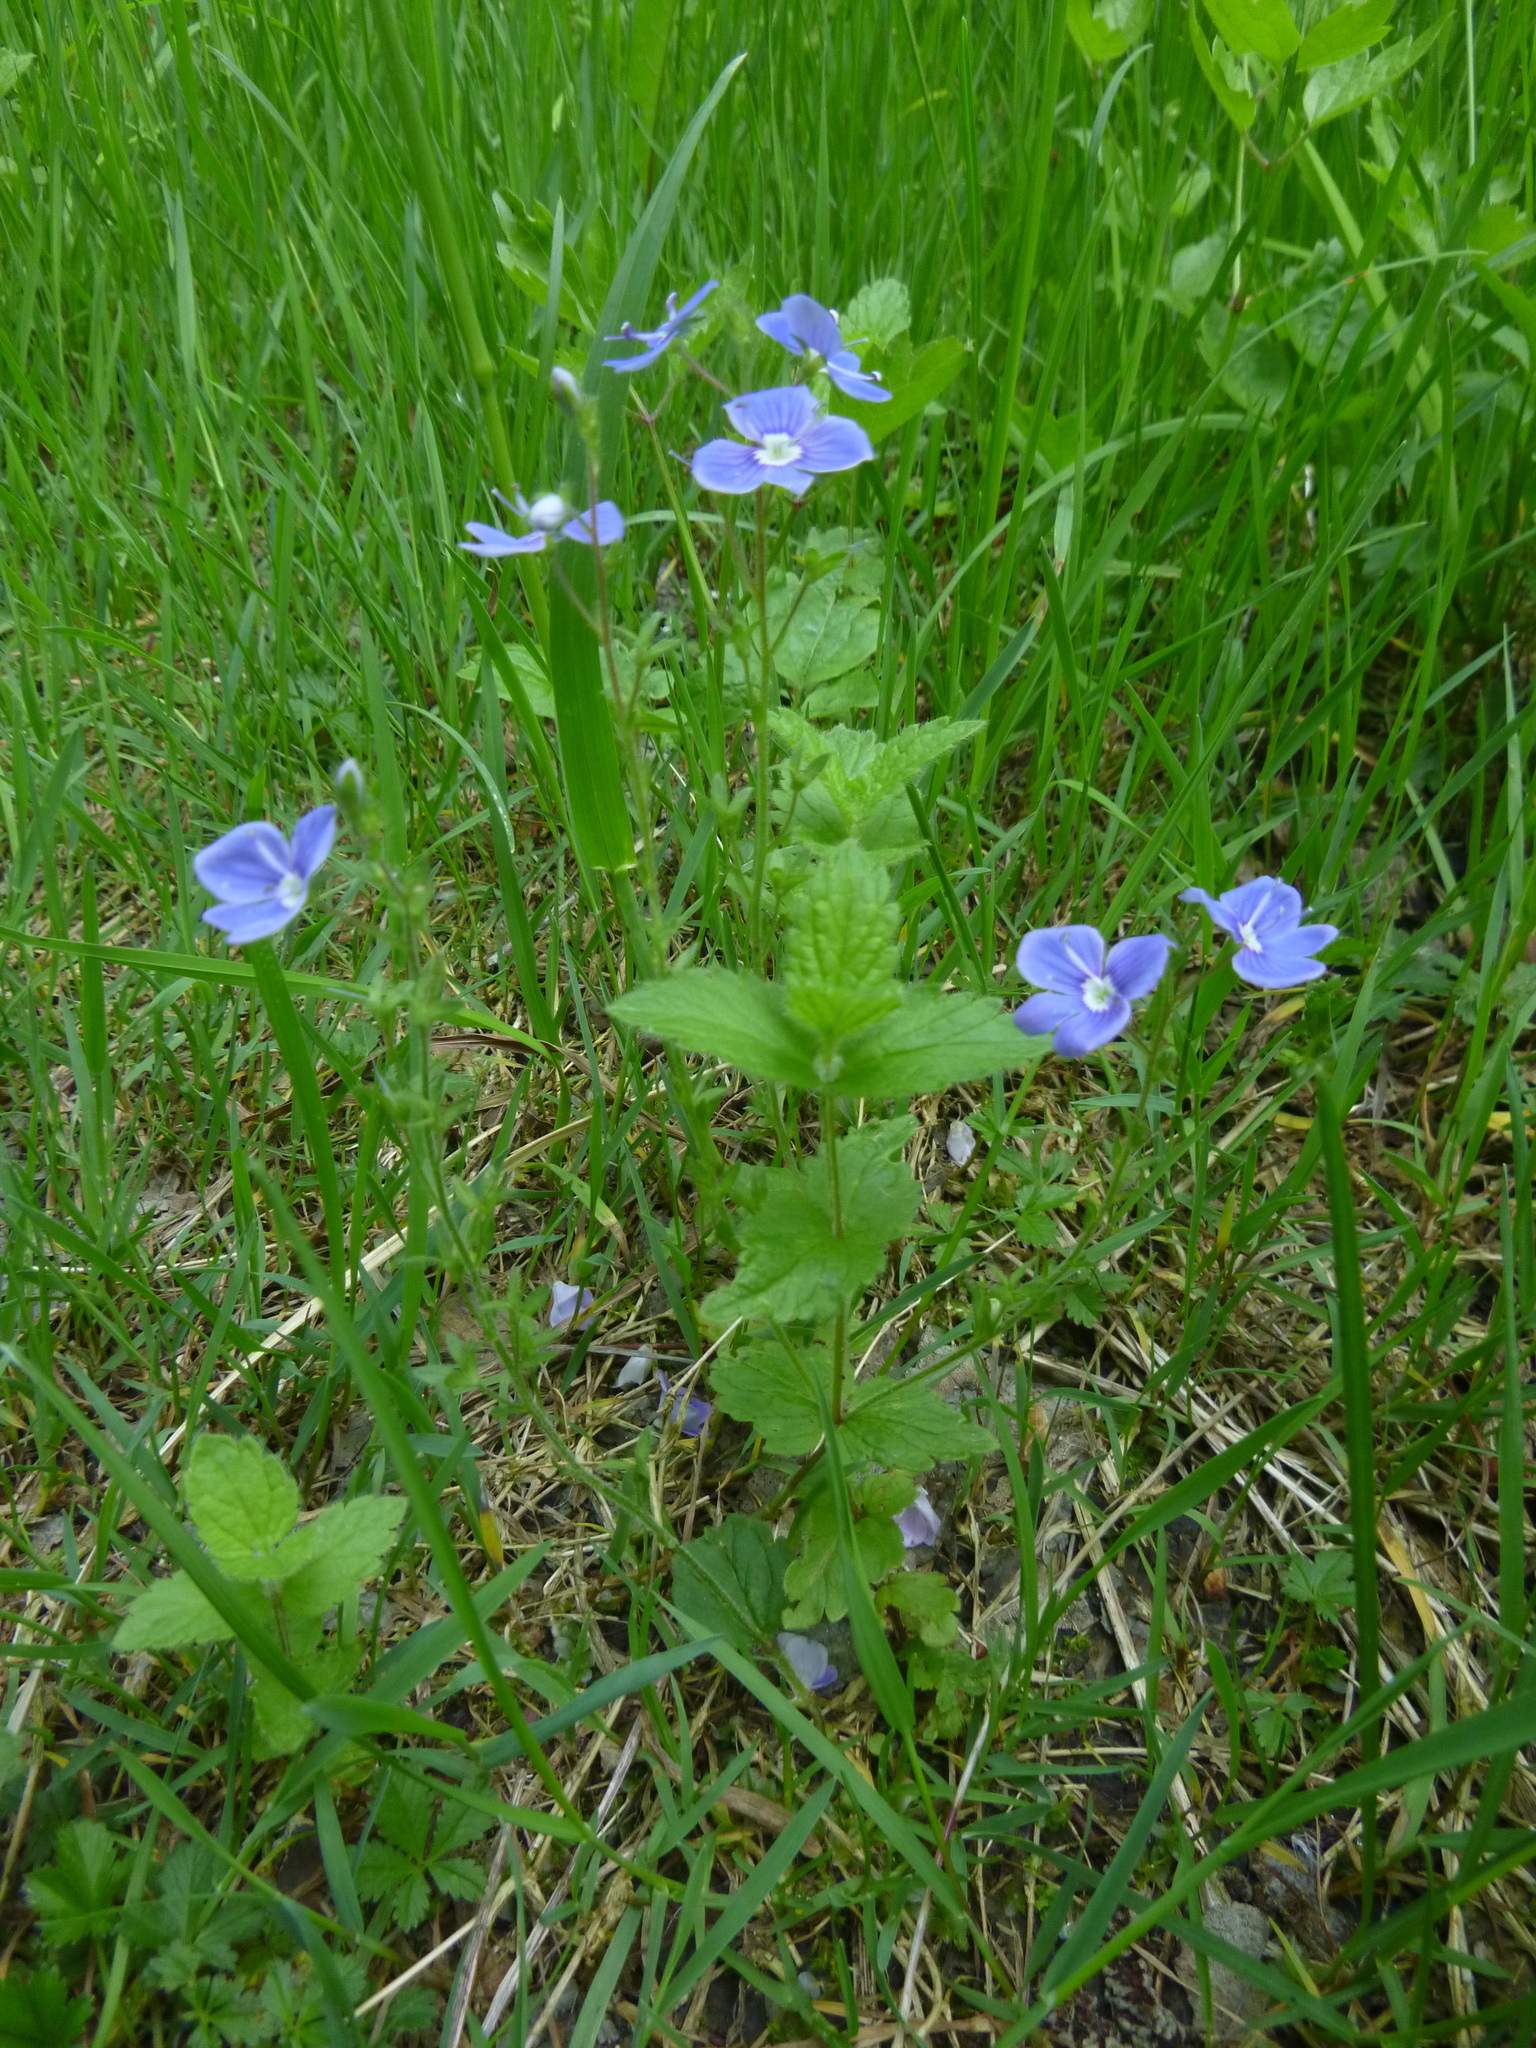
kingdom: Plantae
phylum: Tracheophyta
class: Magnoliopsida
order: Lamiales
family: Plantaginaceae
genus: Veronica
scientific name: Veronica chamaedrys
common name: Germander speedwell
